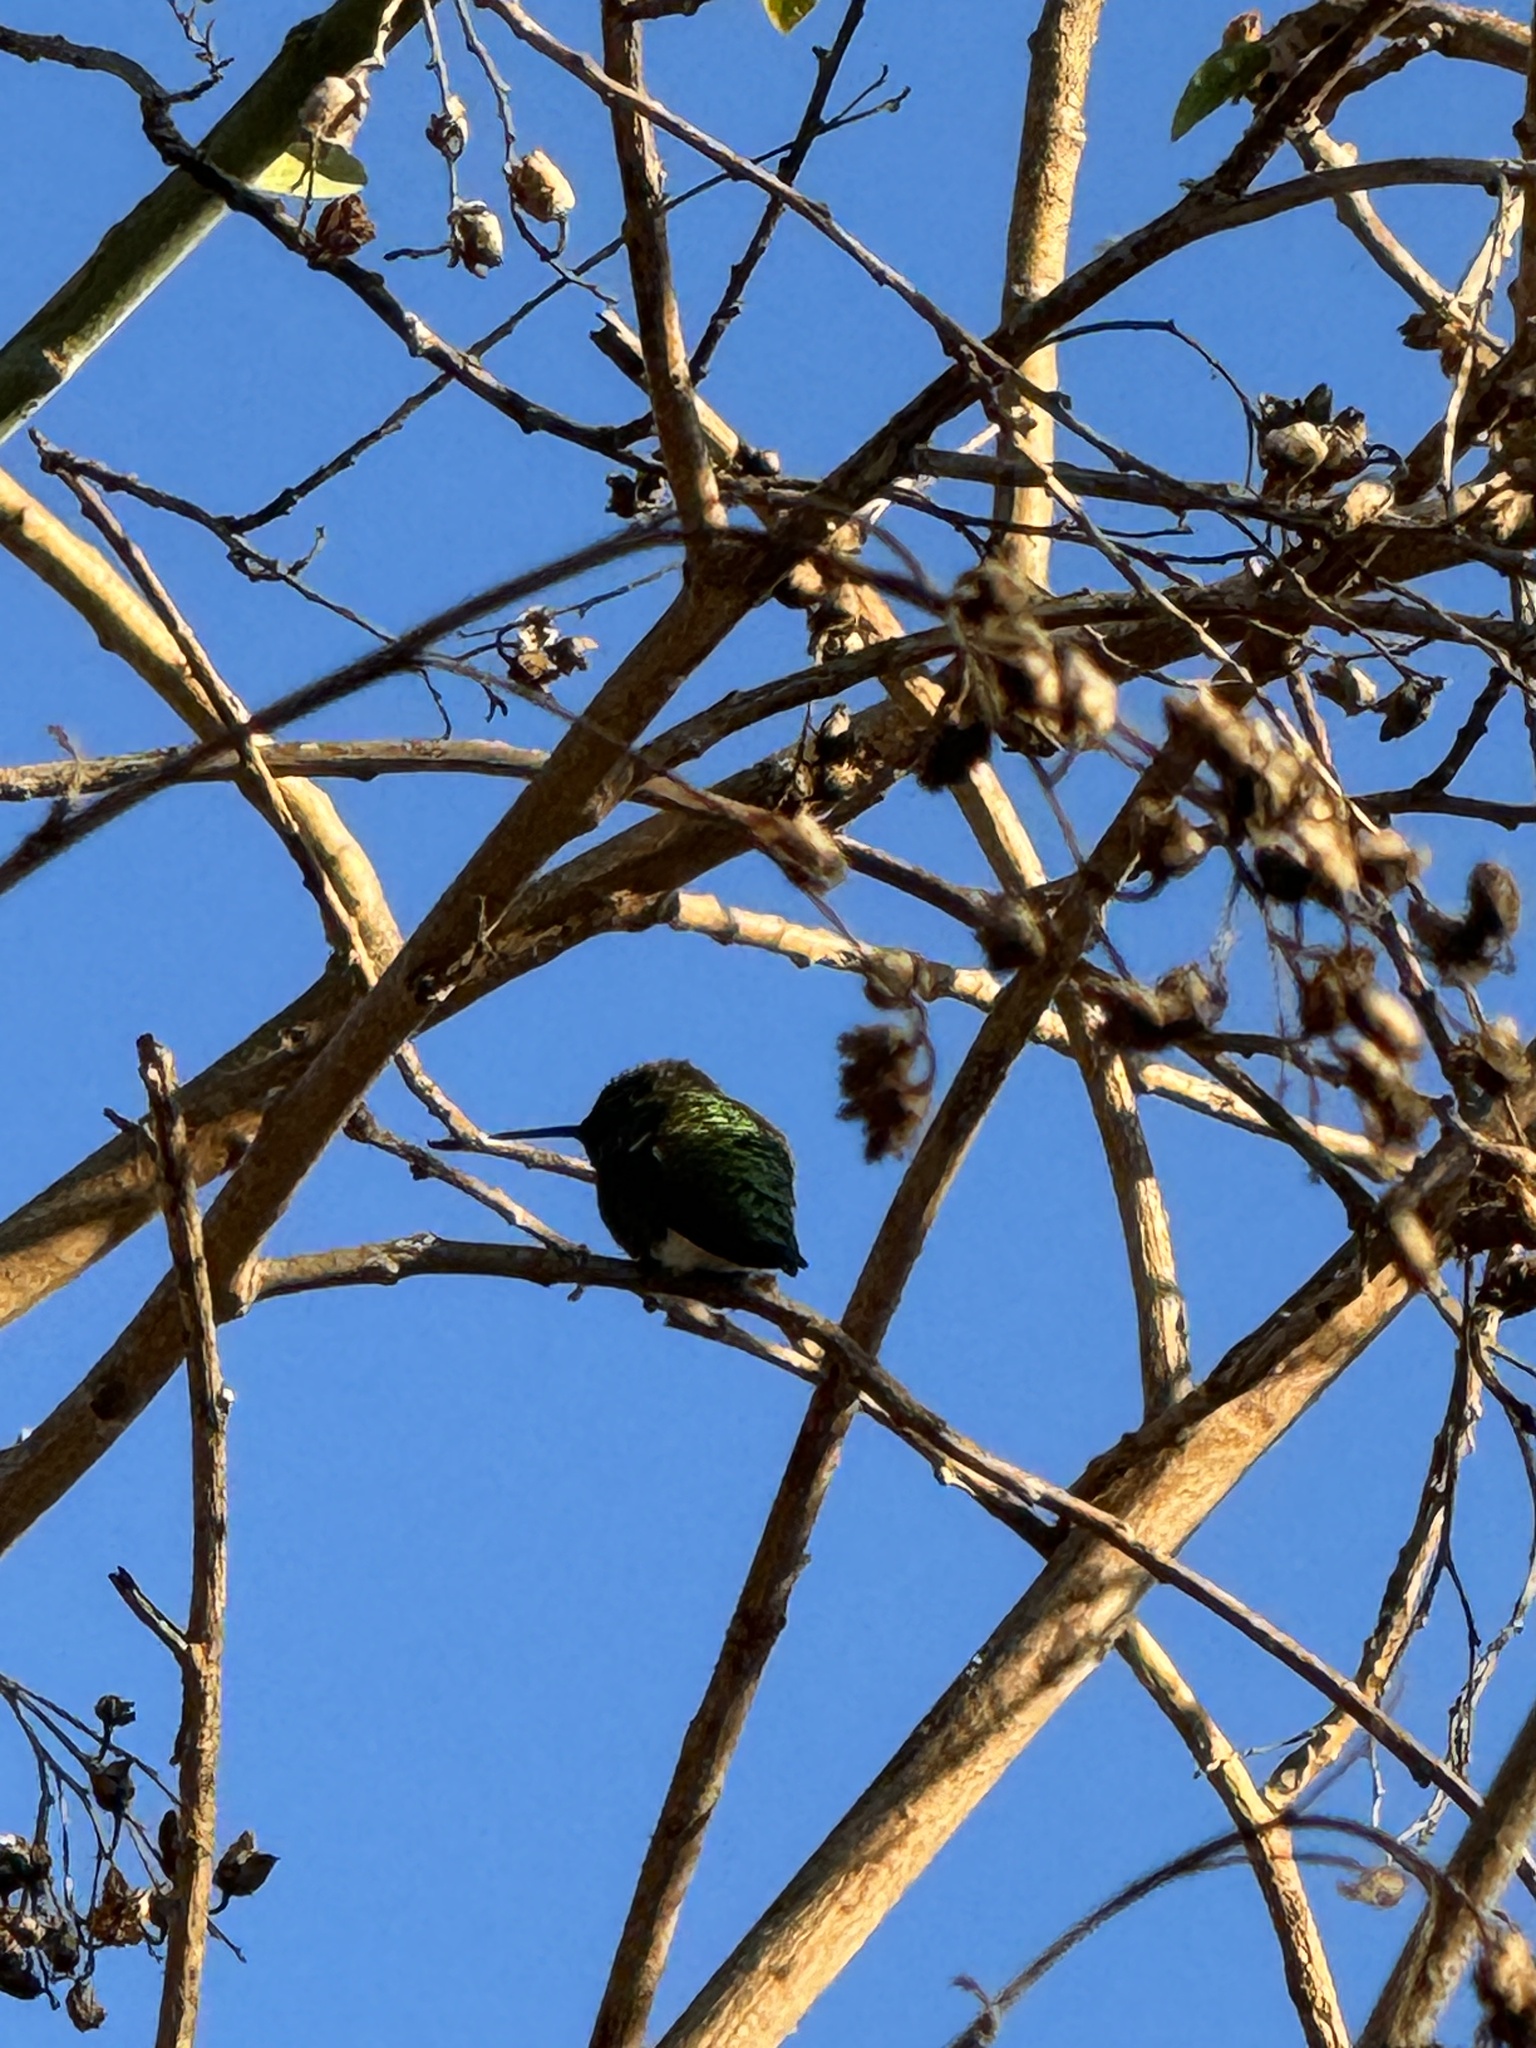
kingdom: Animalia
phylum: Chordata
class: Aves
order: Apodiformes
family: Trochilidae
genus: Calypte
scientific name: Calypte anna
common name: Anna's hummingbird
